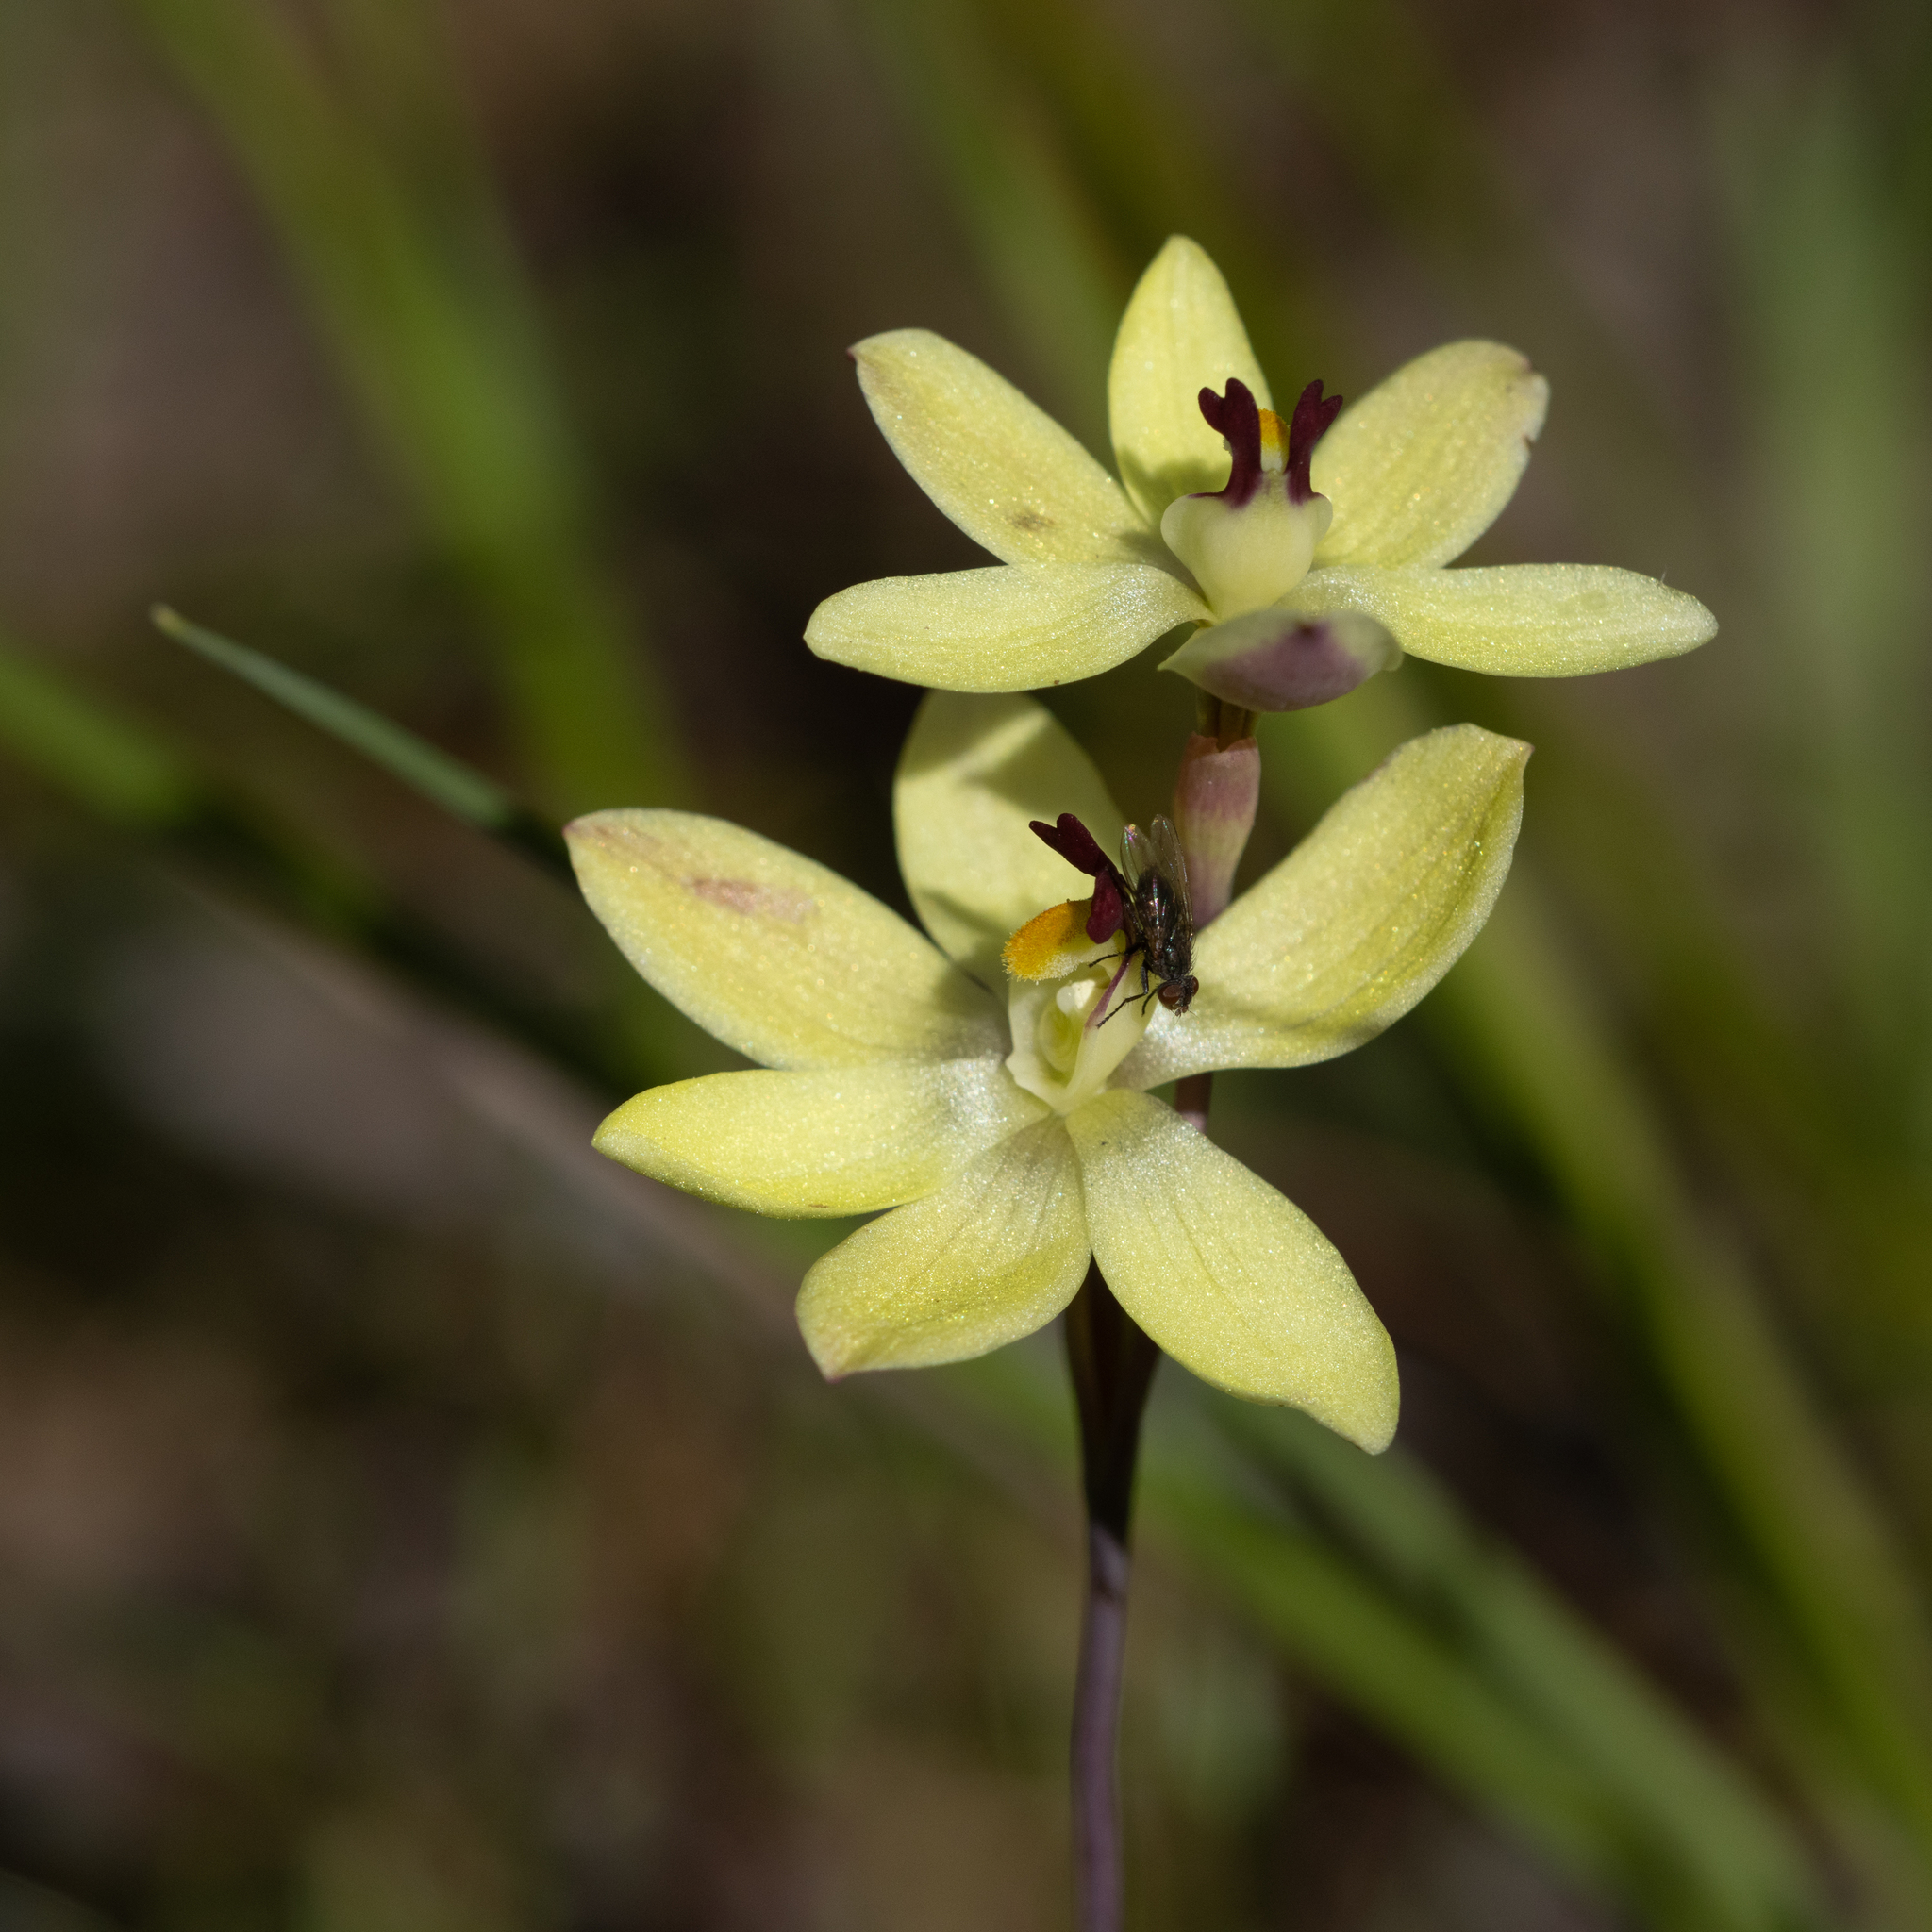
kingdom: Plantae
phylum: Tracheophyta
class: Liliopsida
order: Asparagales
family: Orchidaceae
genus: Thelymitra
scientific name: Thelymitra antennifera
